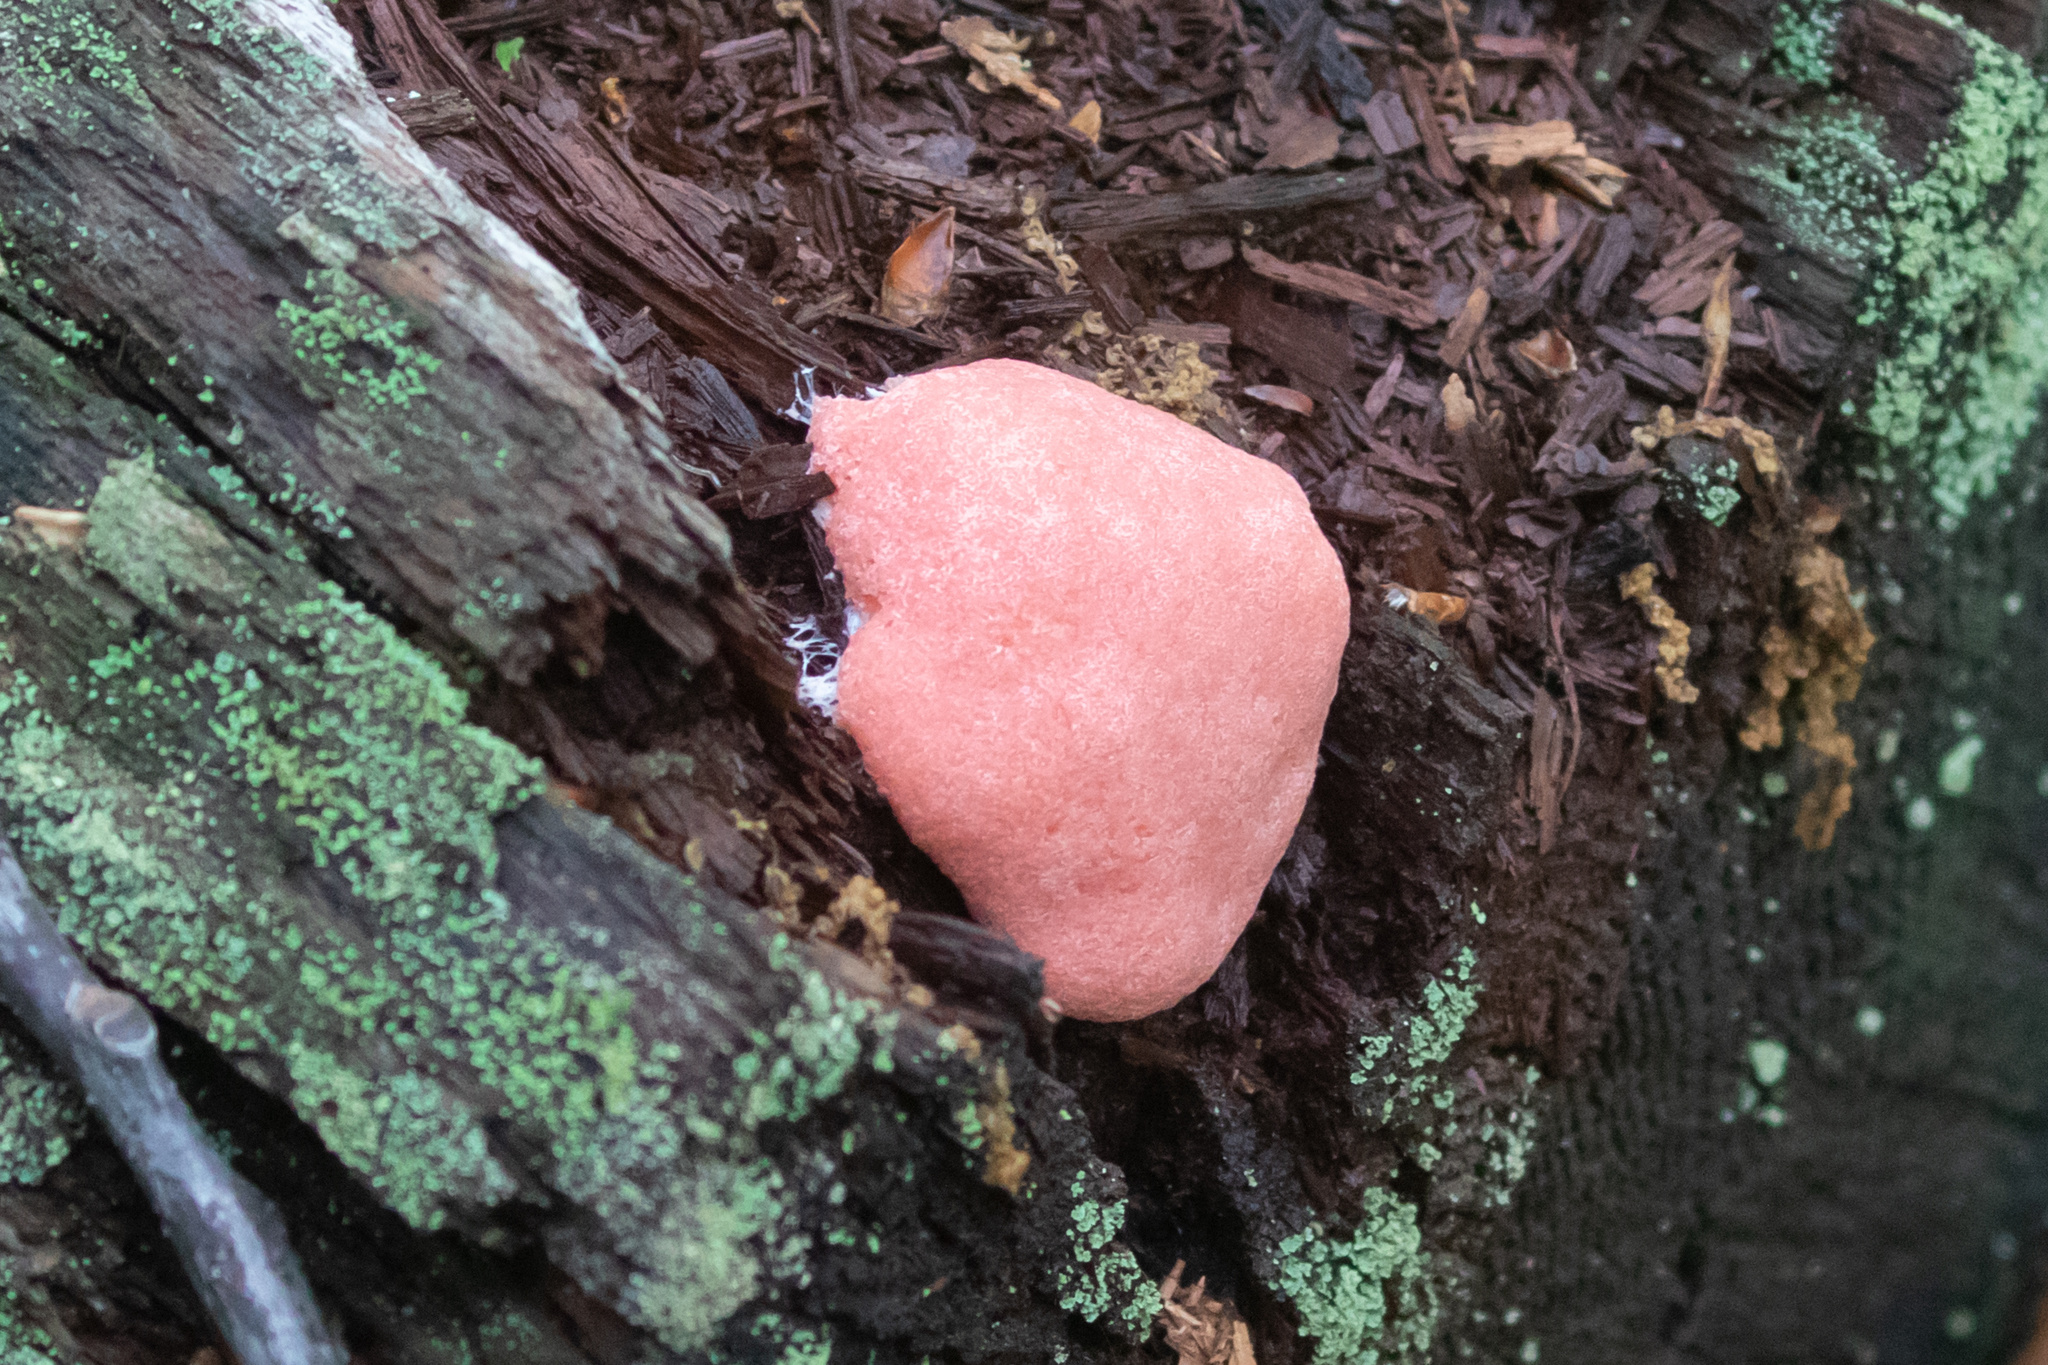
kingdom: Protozoa
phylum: Mycetozoa
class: Myxomycetes
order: Cribrariales
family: Tubiferaceae
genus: Tubifera
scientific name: Tubifera magna
